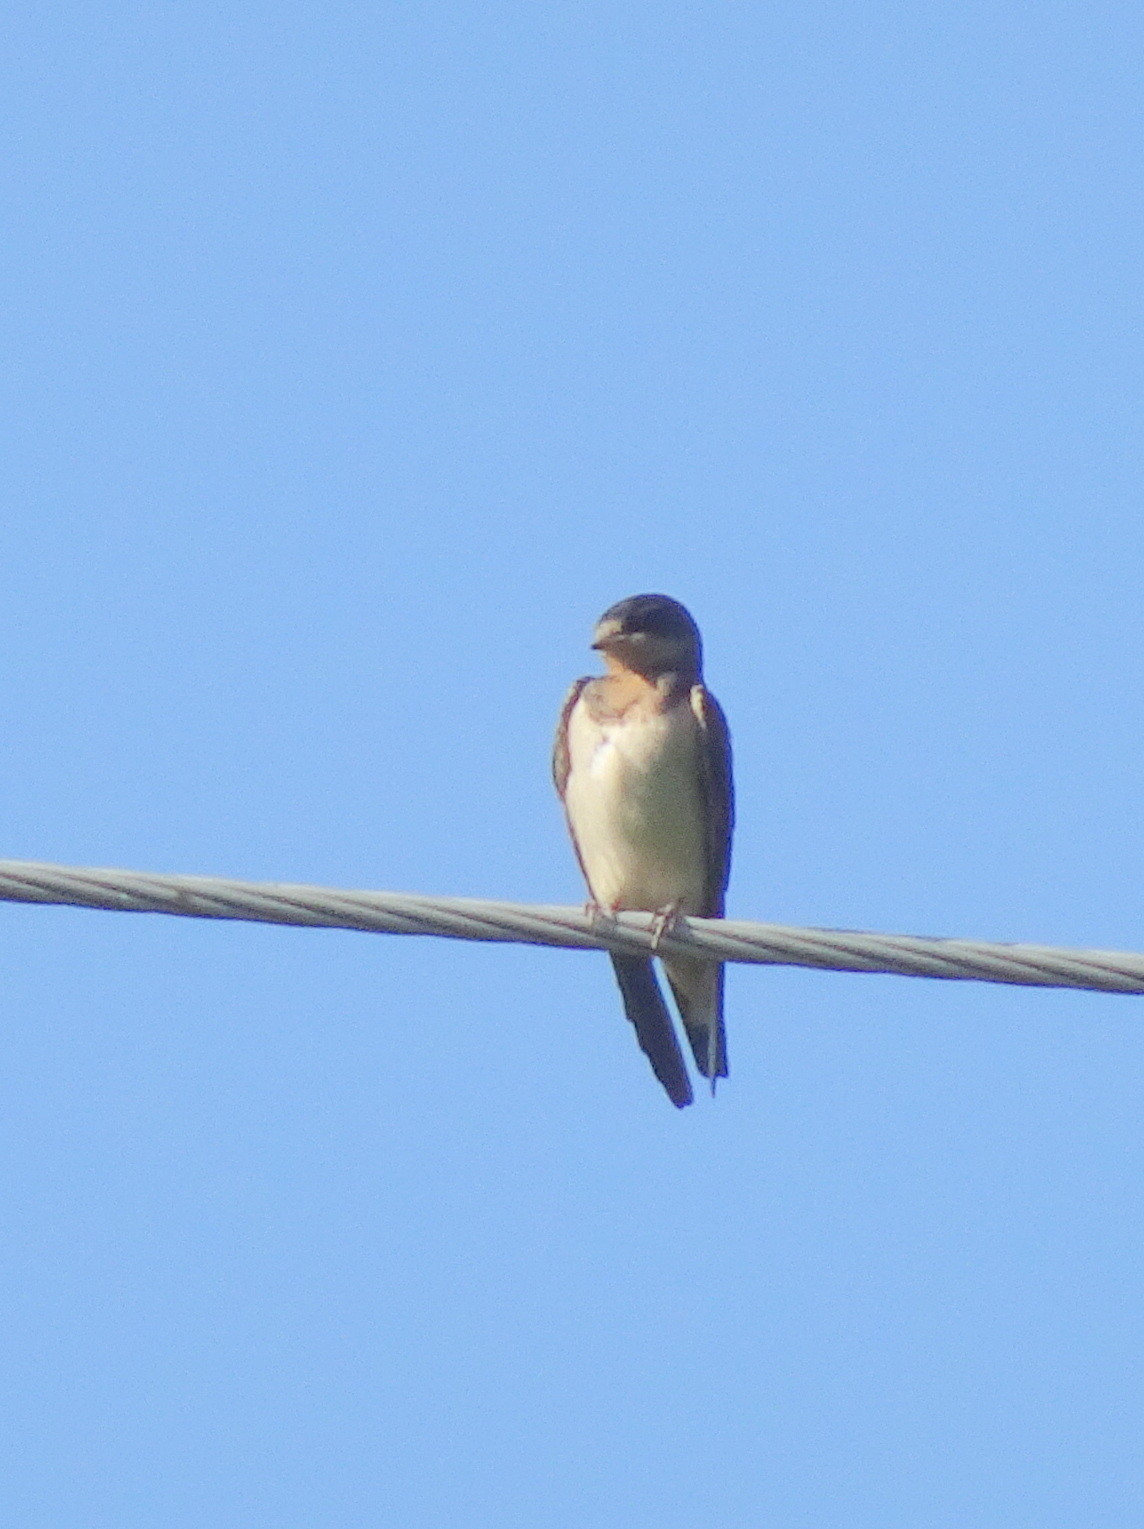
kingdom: Animalia
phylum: Chordata
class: Aves
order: Passeriformes
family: Hirundinidae
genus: Hirundo
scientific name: Hirundo rustica
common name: Barn swallow
